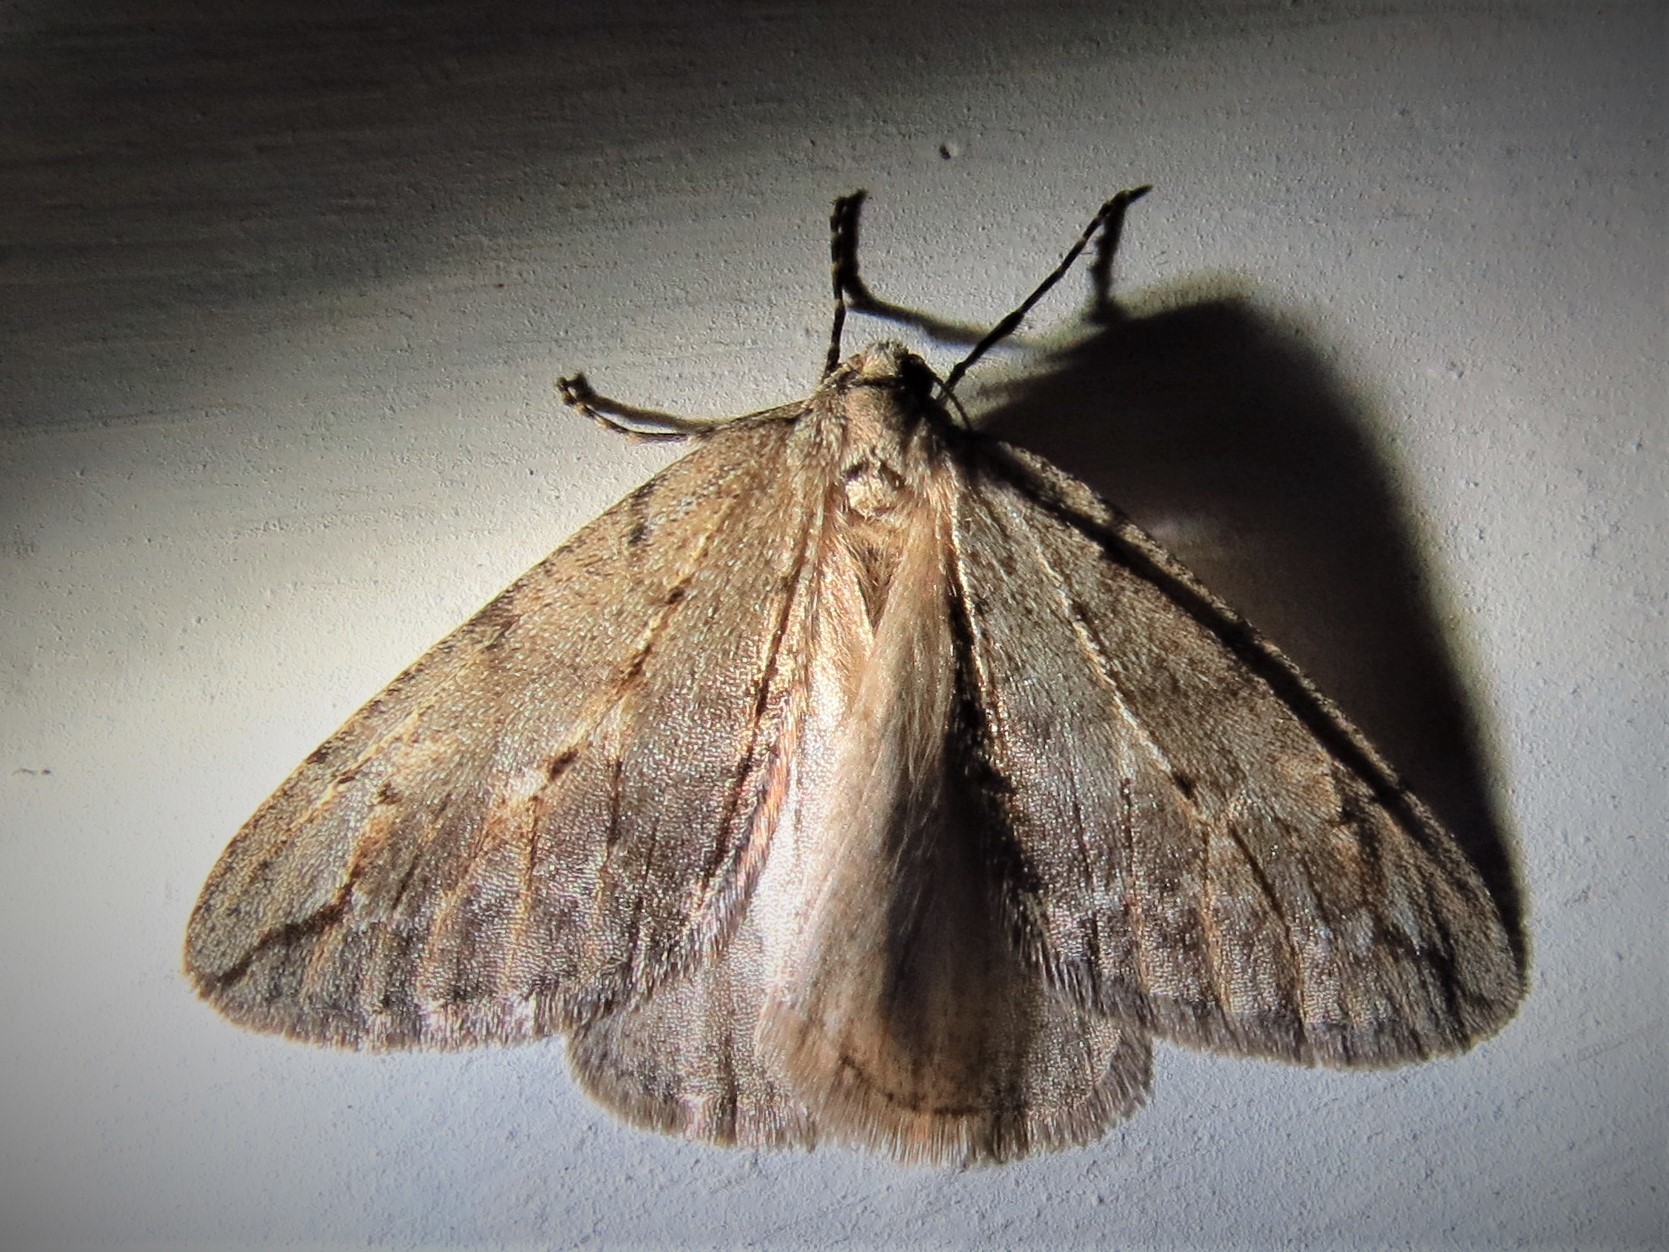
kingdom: Animalia
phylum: Arthropoda
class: Insecta
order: Lepidoptera
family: Geometridae
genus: Paleacrita
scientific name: Paleacrita vernata
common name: Spring cankerworm
